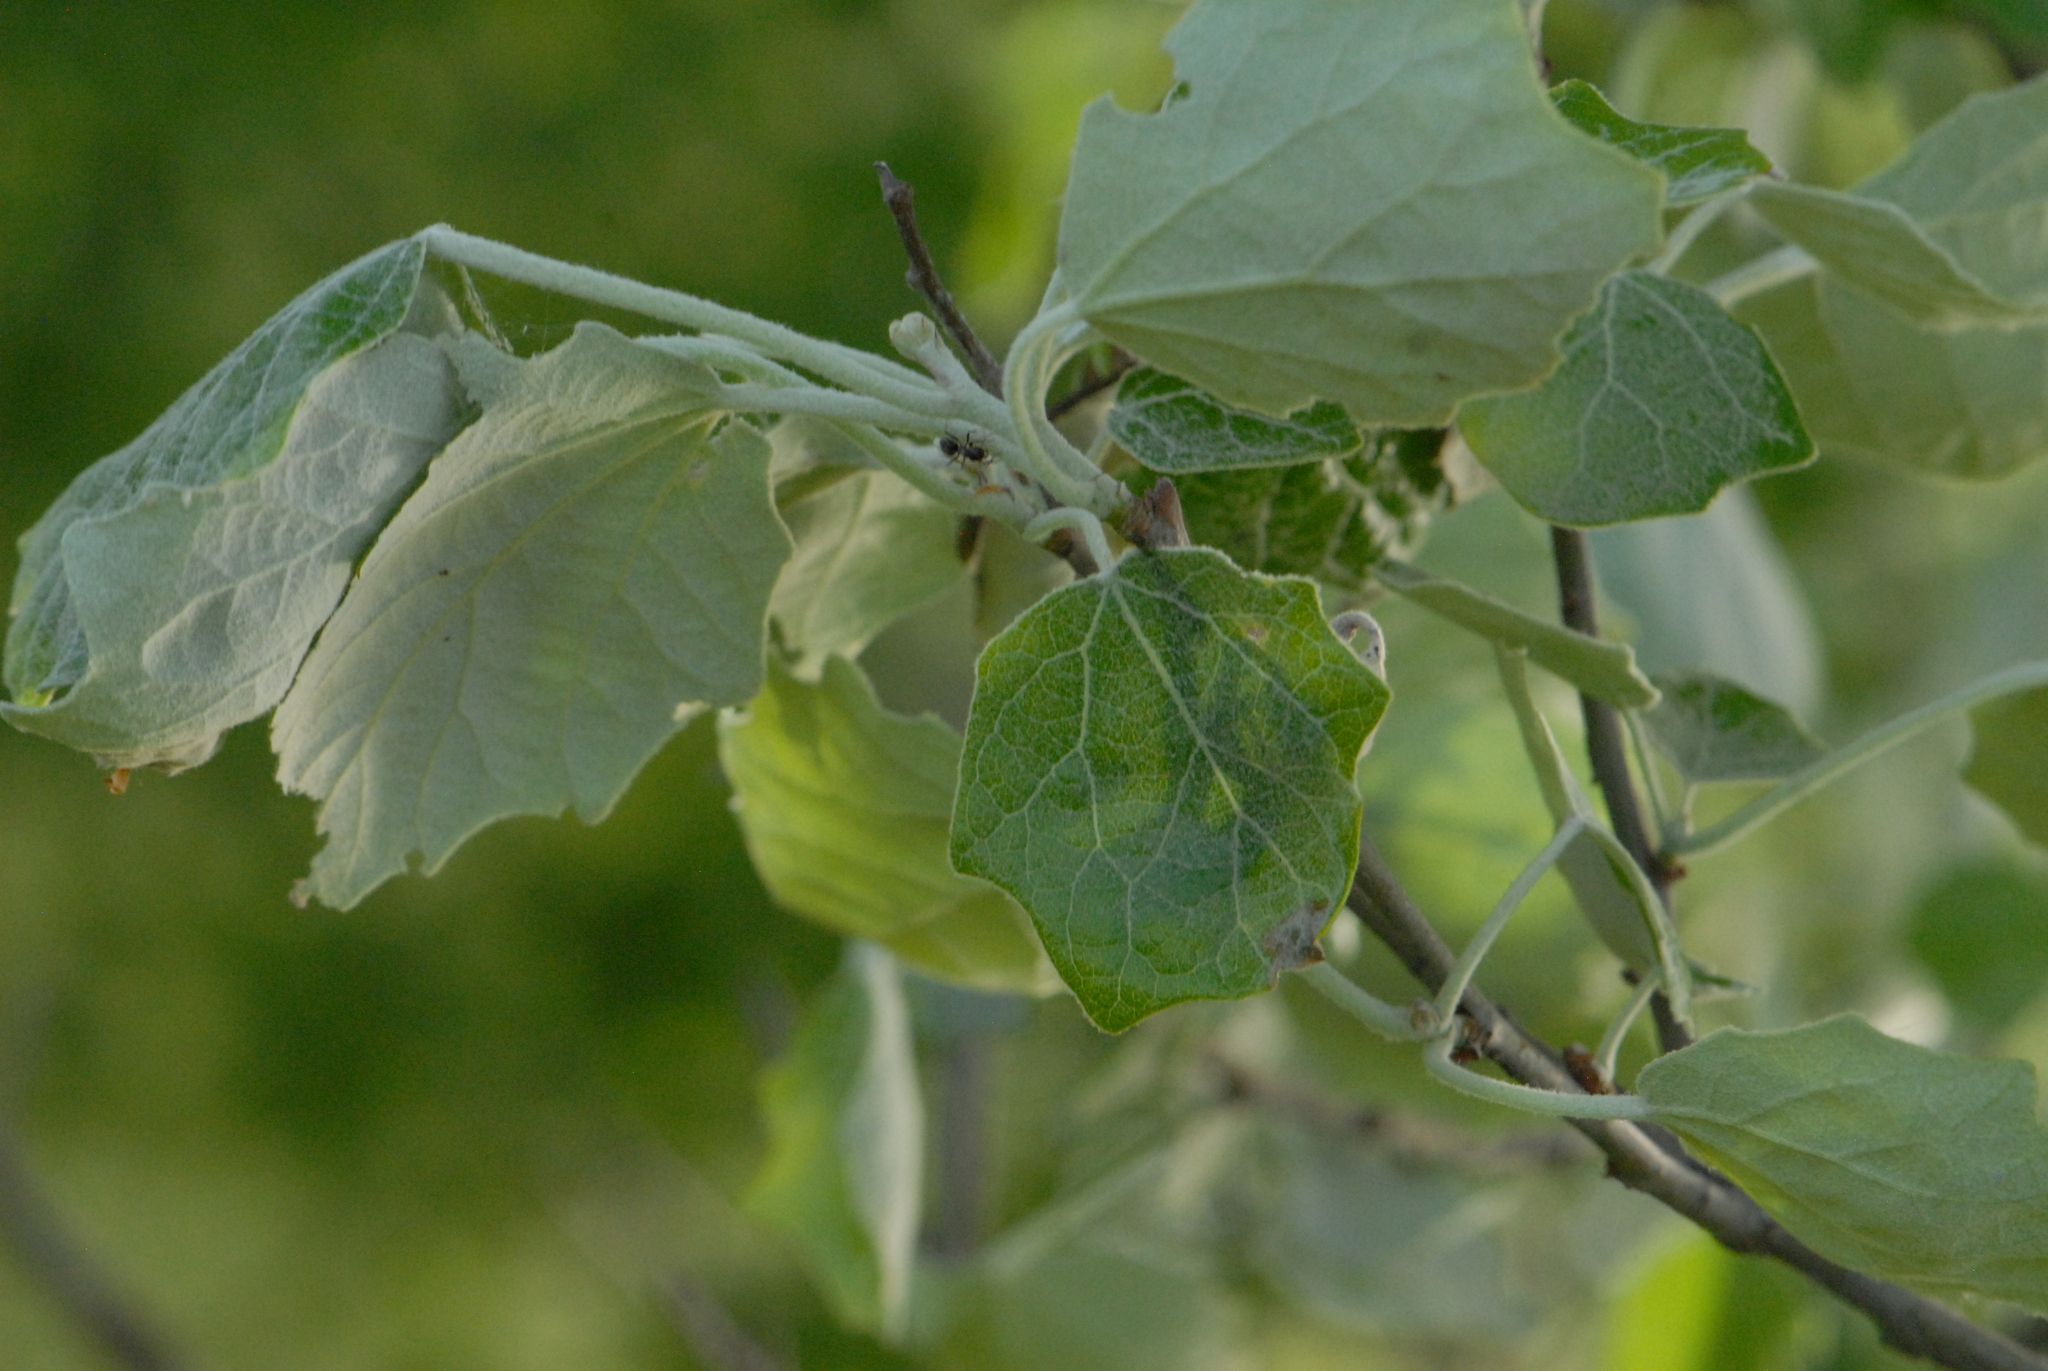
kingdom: Plantae
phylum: Tracheophyta
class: Magnoliopsida
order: Malpighiales
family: Salicaceae
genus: Populus
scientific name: Populus alba
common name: White poplar
